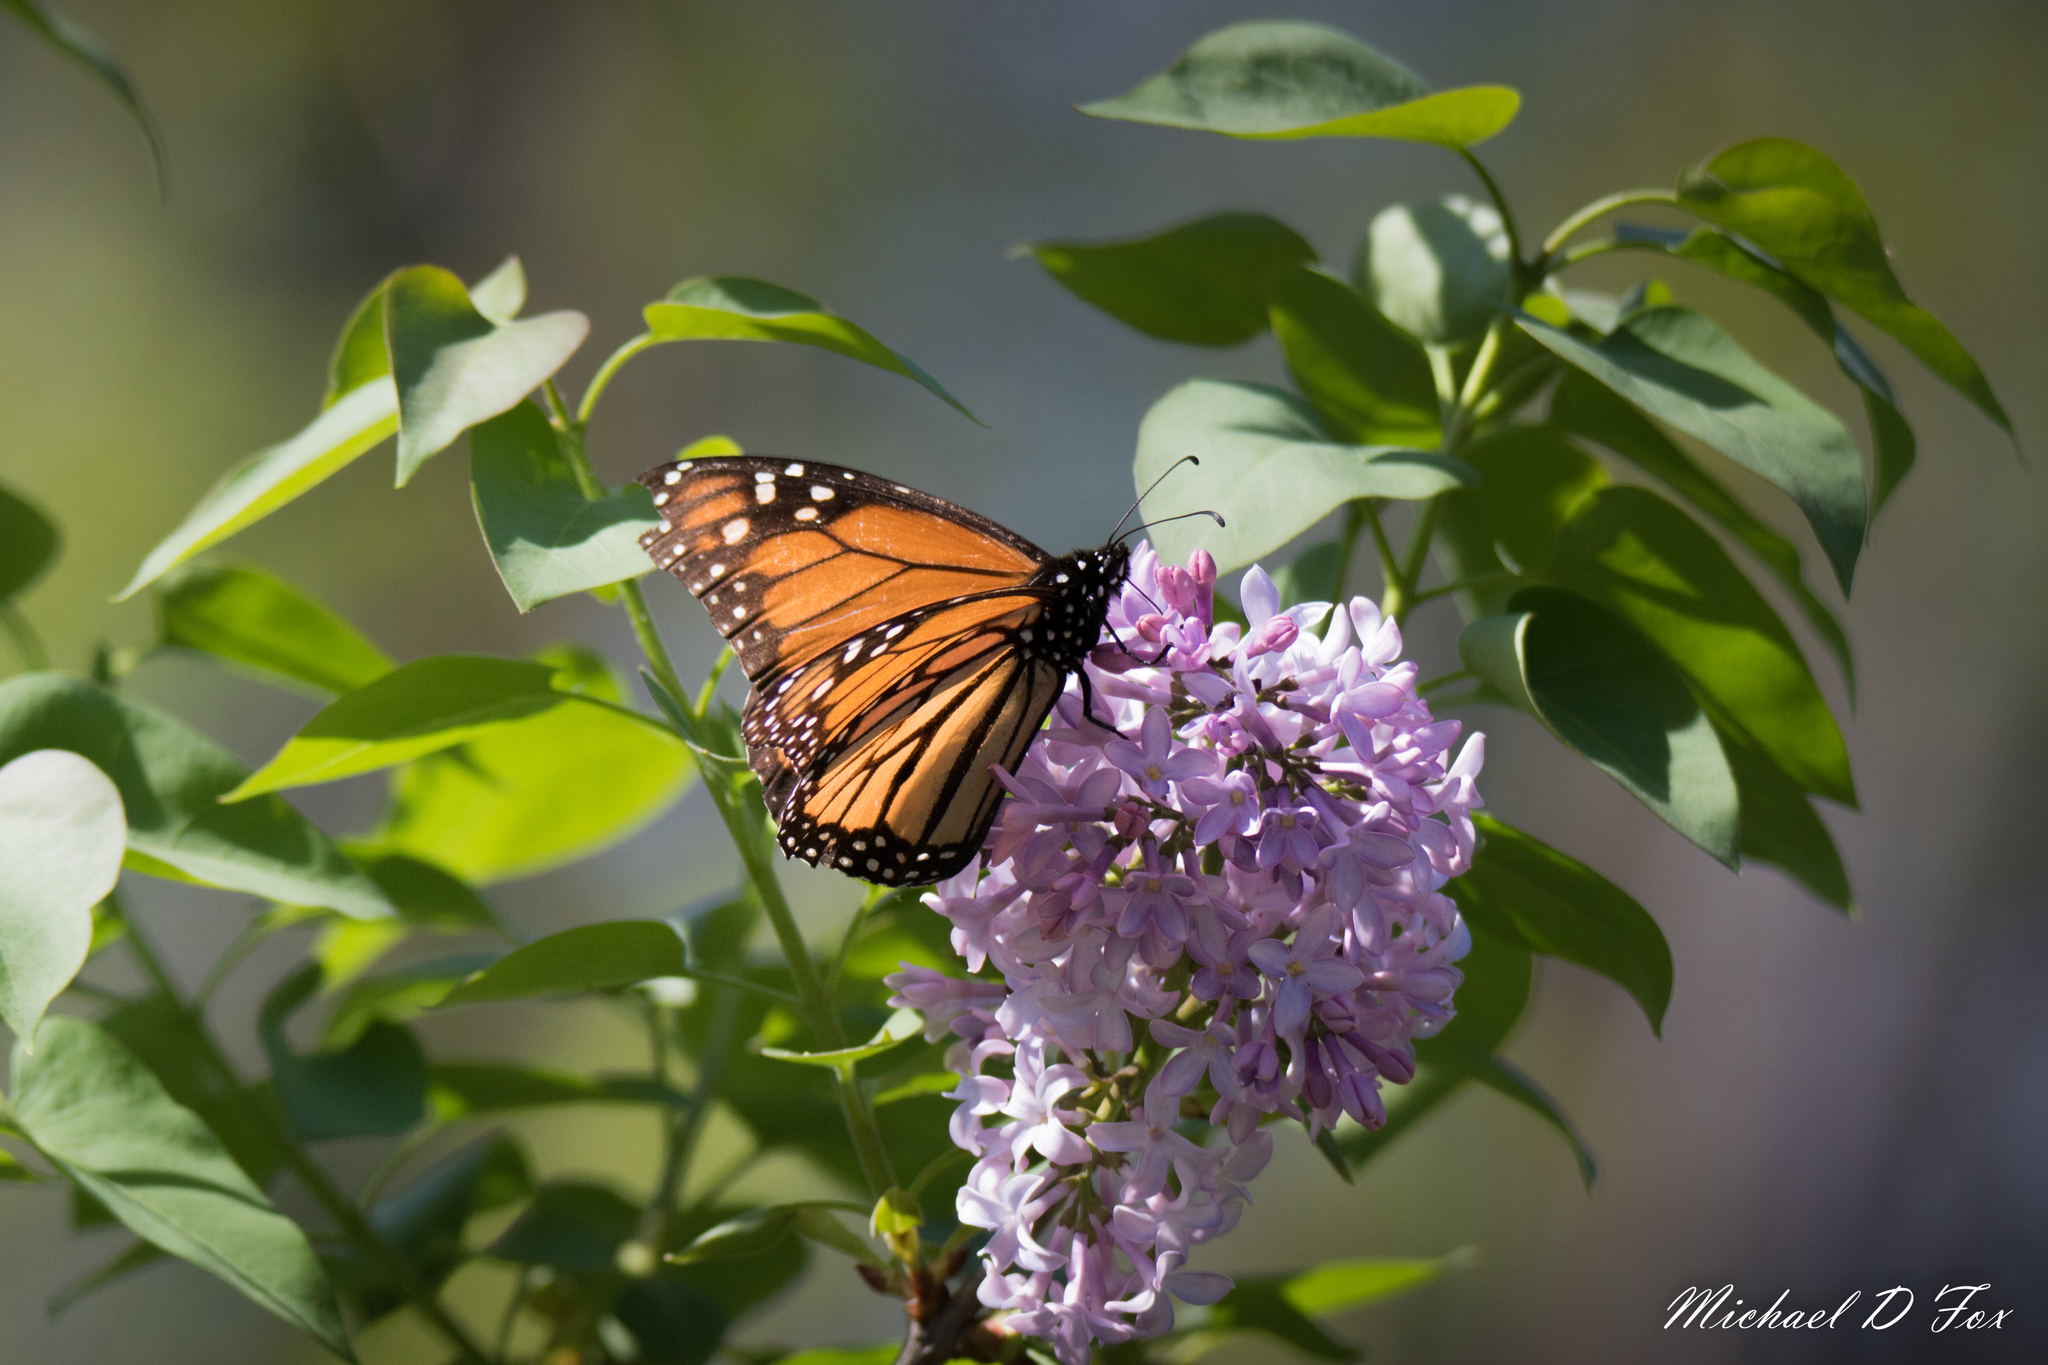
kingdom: Animalia
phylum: Arthropoda
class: Insecta
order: Lepidoptera
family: Nymphalidae
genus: Danaus
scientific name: Danaus plexippus
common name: Monarch
